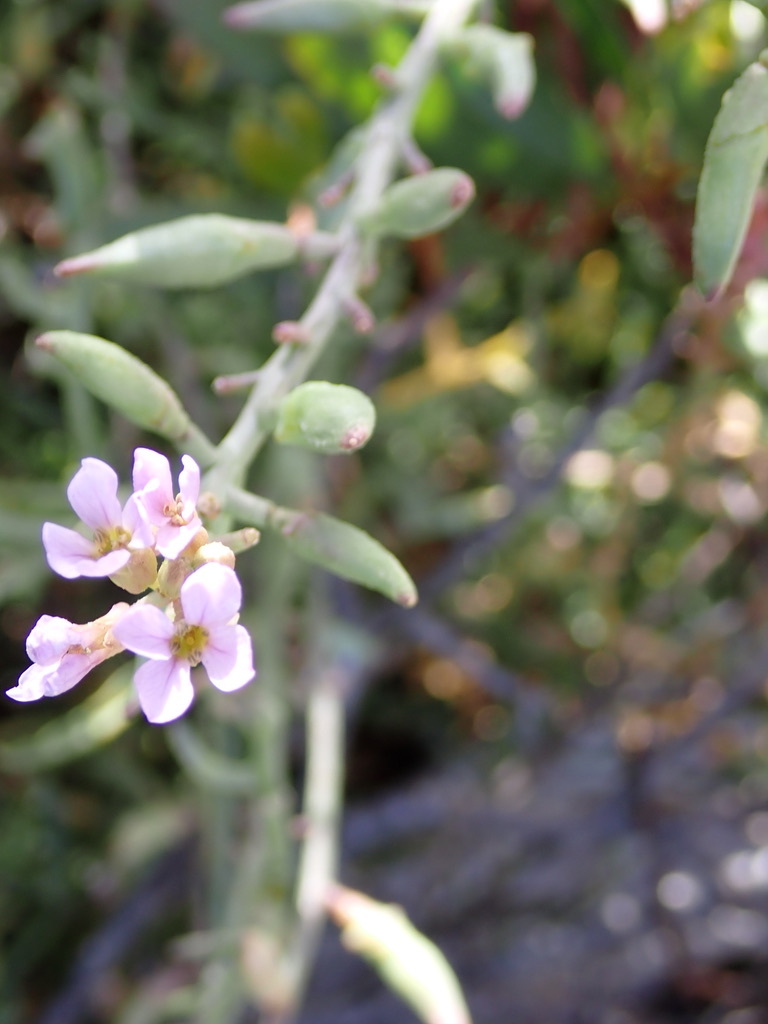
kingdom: Plantae
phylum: Tracheophyta
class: Magnoliopsida
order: Brassicales
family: Brassicaceae
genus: Cakile
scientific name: Cakile maritima
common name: Sea rocket
